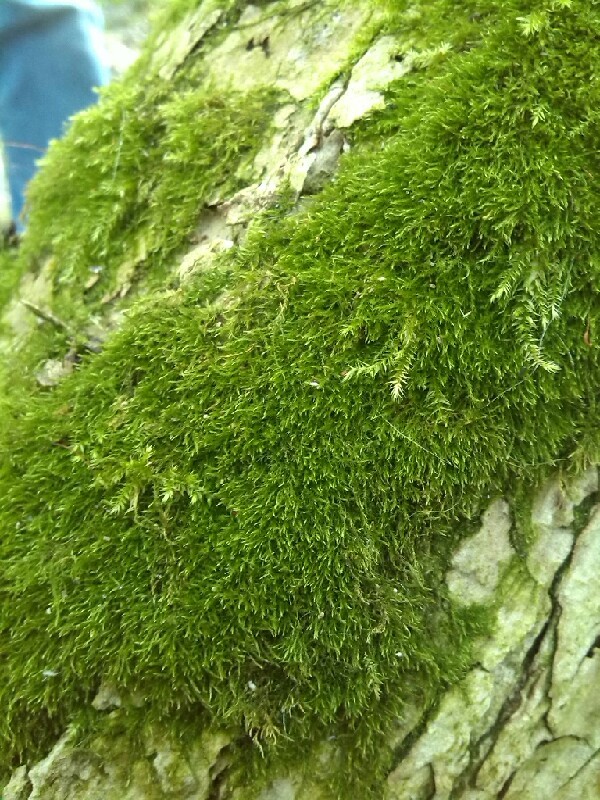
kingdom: Plantae
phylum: Bryophyta
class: Bryopsida
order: Hypnales
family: Amblystegiaceae
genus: Amblystegium
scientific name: Amblystegium serpens
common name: Jurkatzka's feather moss
